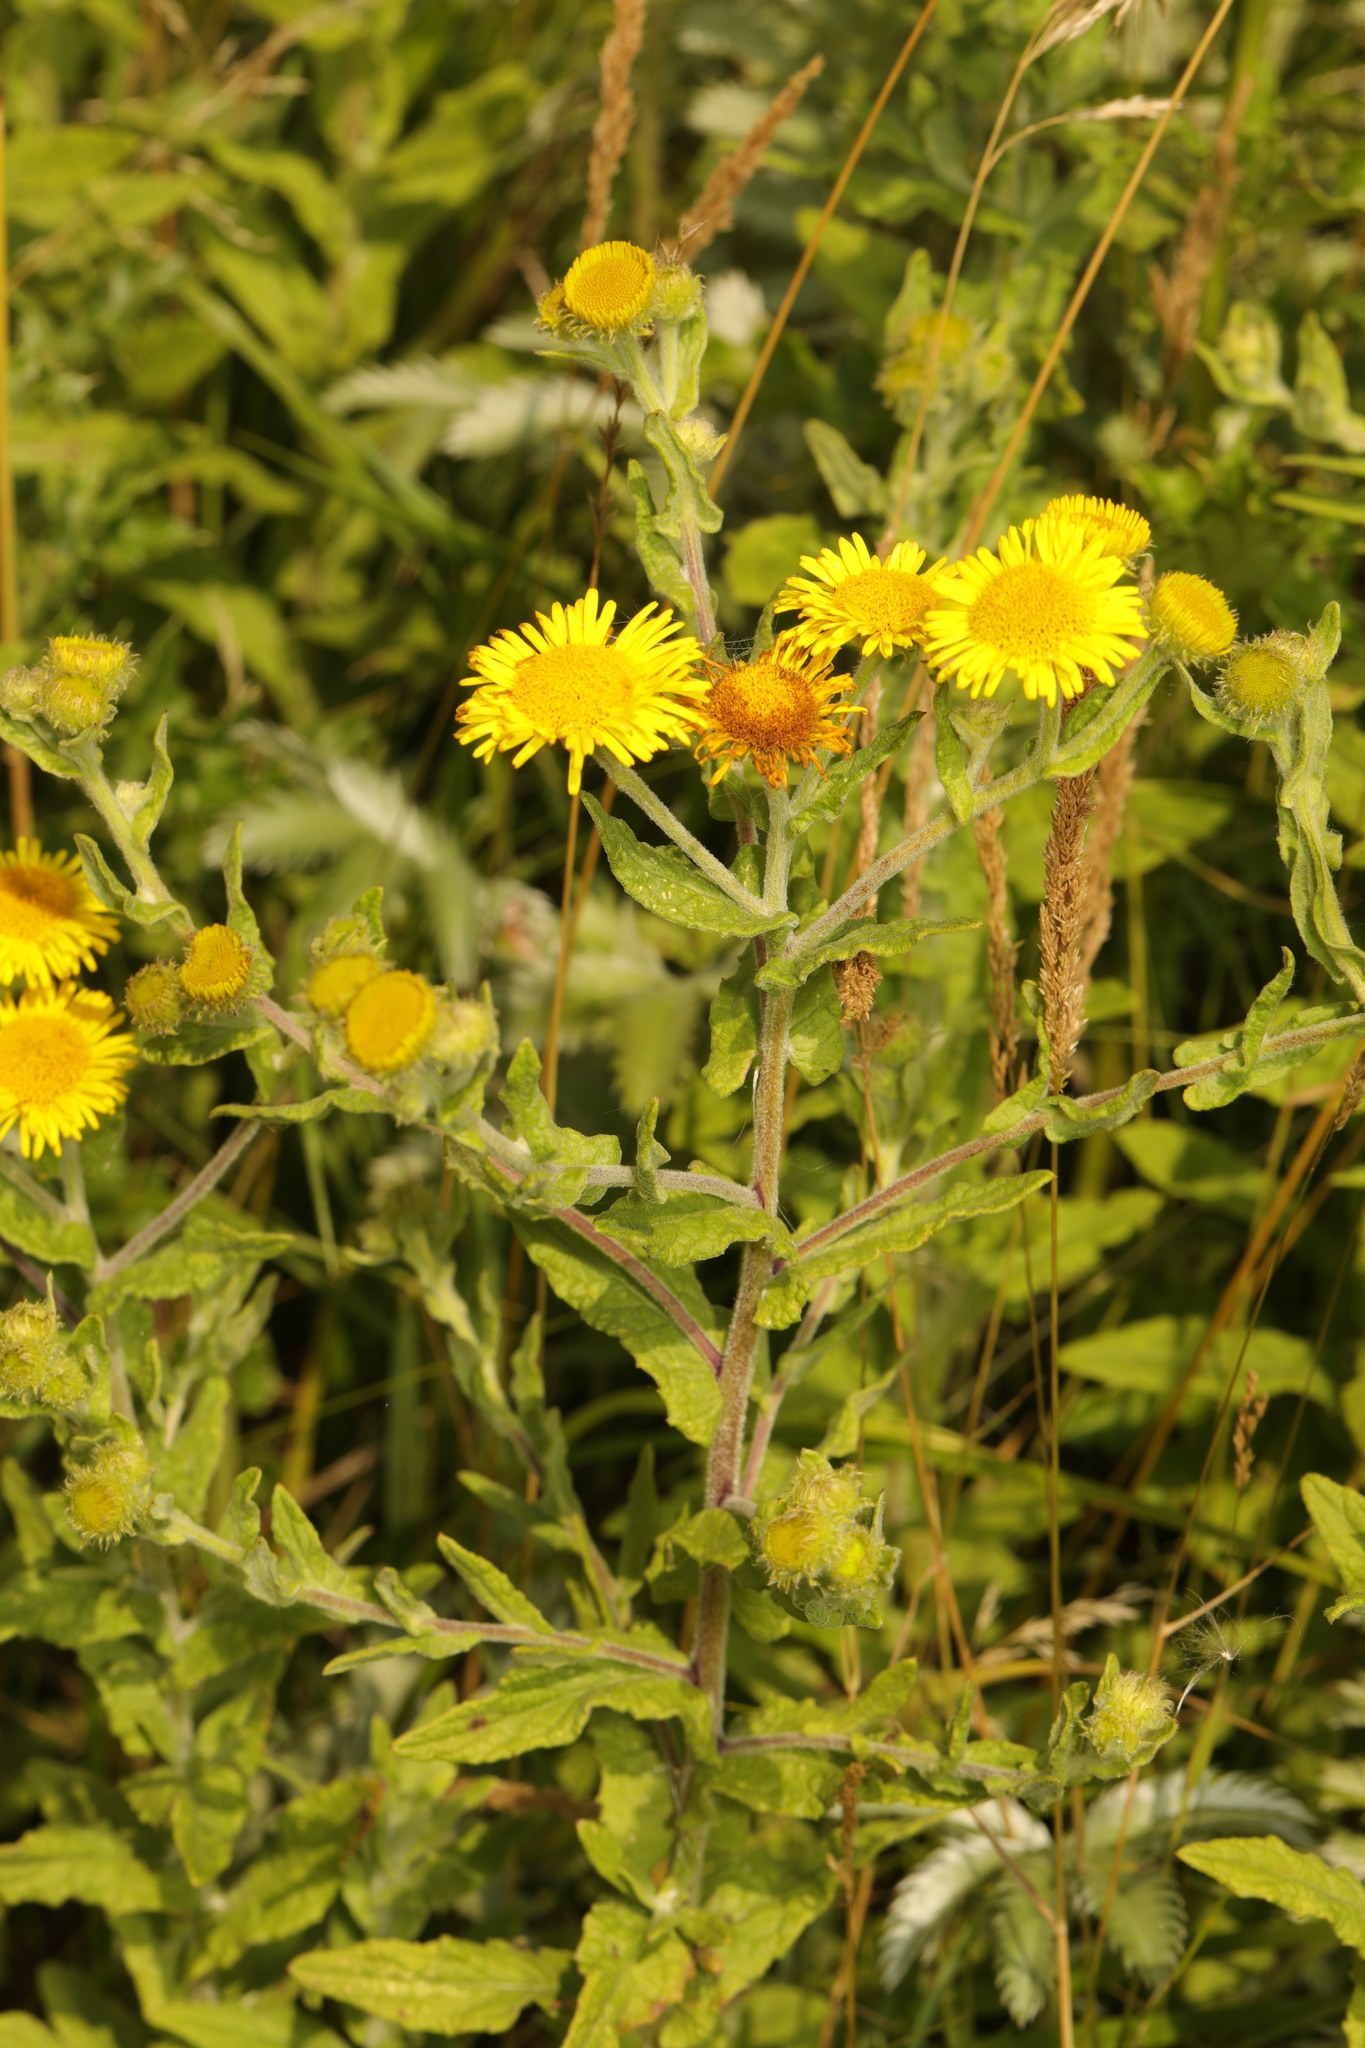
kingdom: Plantae
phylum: Tracheophyta
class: Magnoliopsida
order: Asterales
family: Asteraceae
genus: Pulicaria
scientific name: Pulicaria dysenterica
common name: Common fleabane
